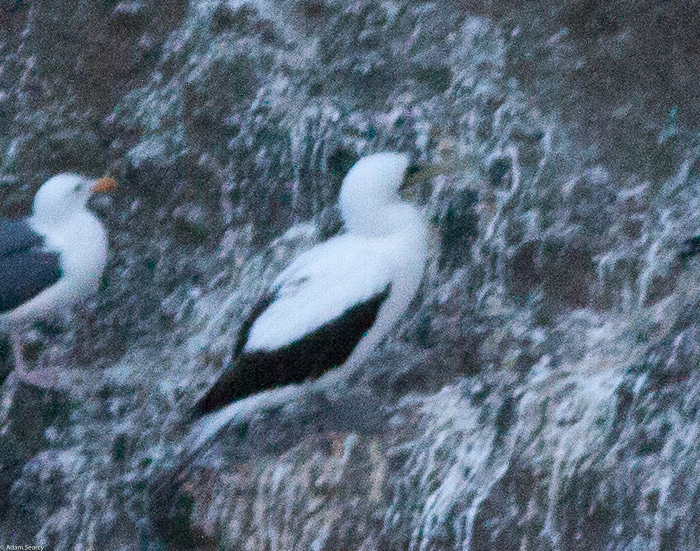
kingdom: Animalia
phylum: Chordata
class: Aves
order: Suliformes
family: Sulidae
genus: Sula
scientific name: Sula dactylatra
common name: Masked booby
